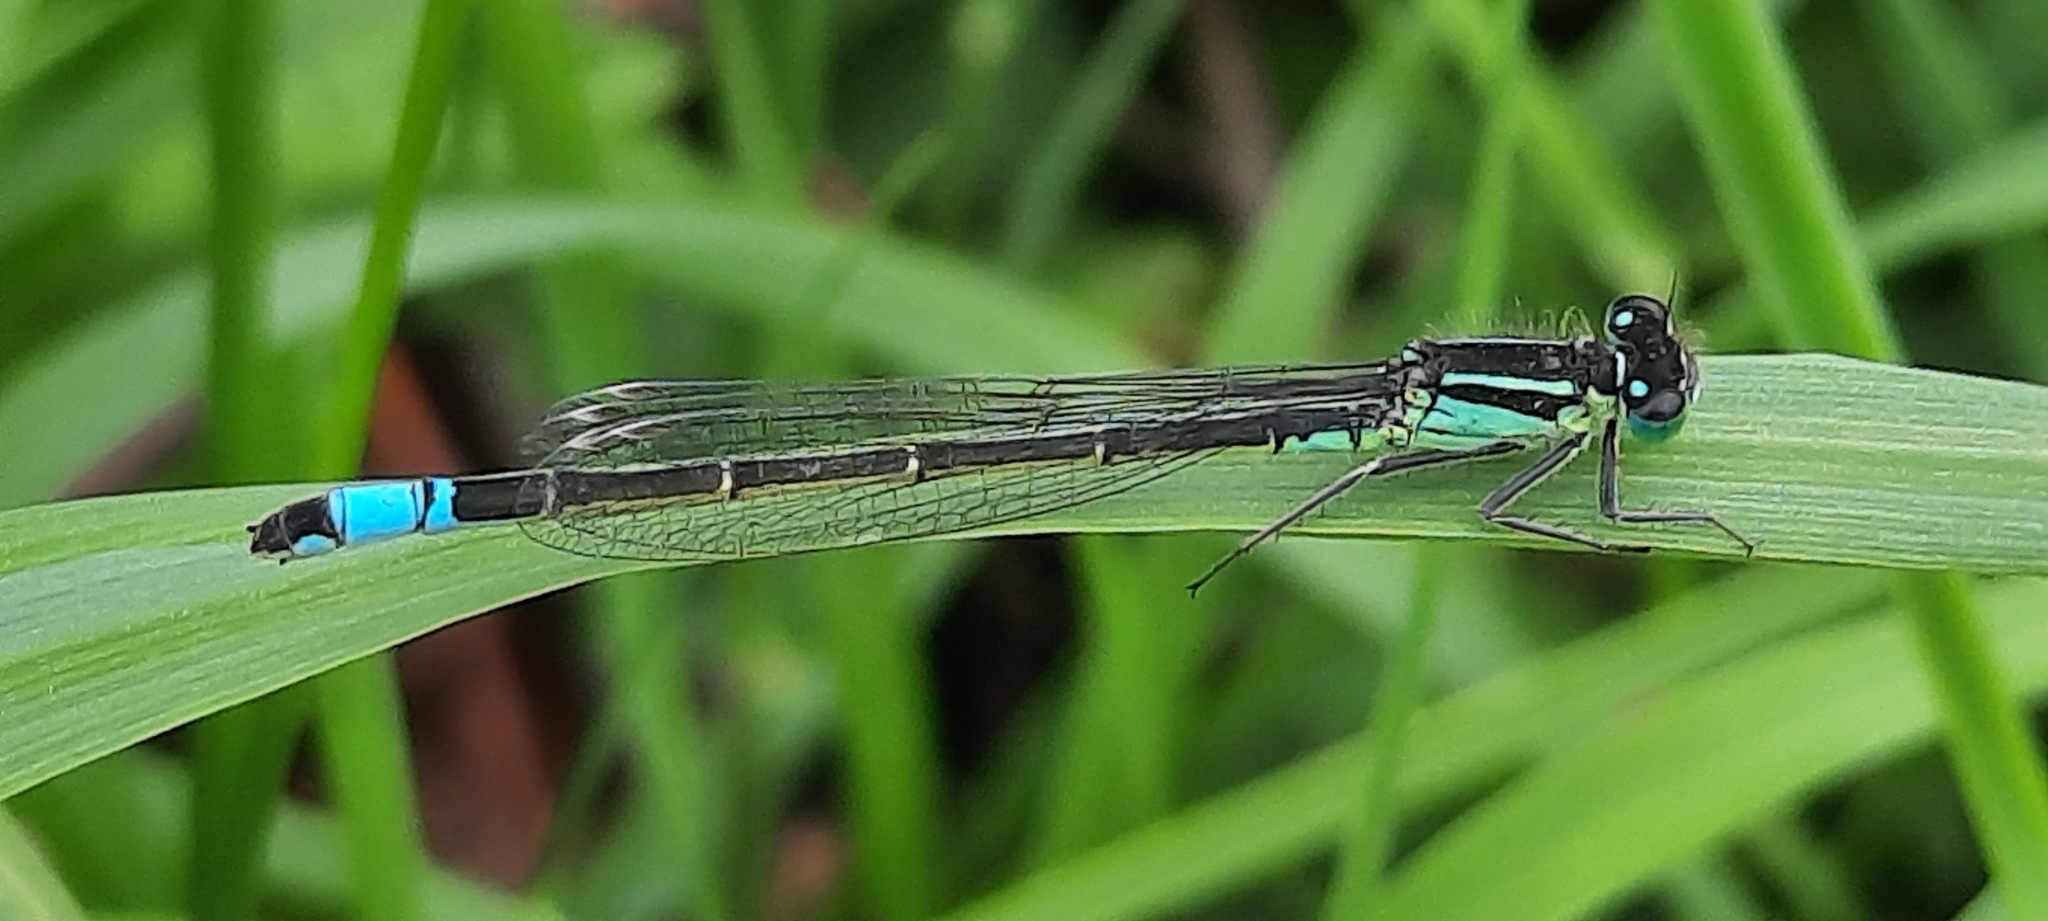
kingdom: Animalia
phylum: Arthropoda
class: Insecta
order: Odonata
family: Coenagrionidae
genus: Ischnura
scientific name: Ischnura elegans
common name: Blue-tailed damselfly
